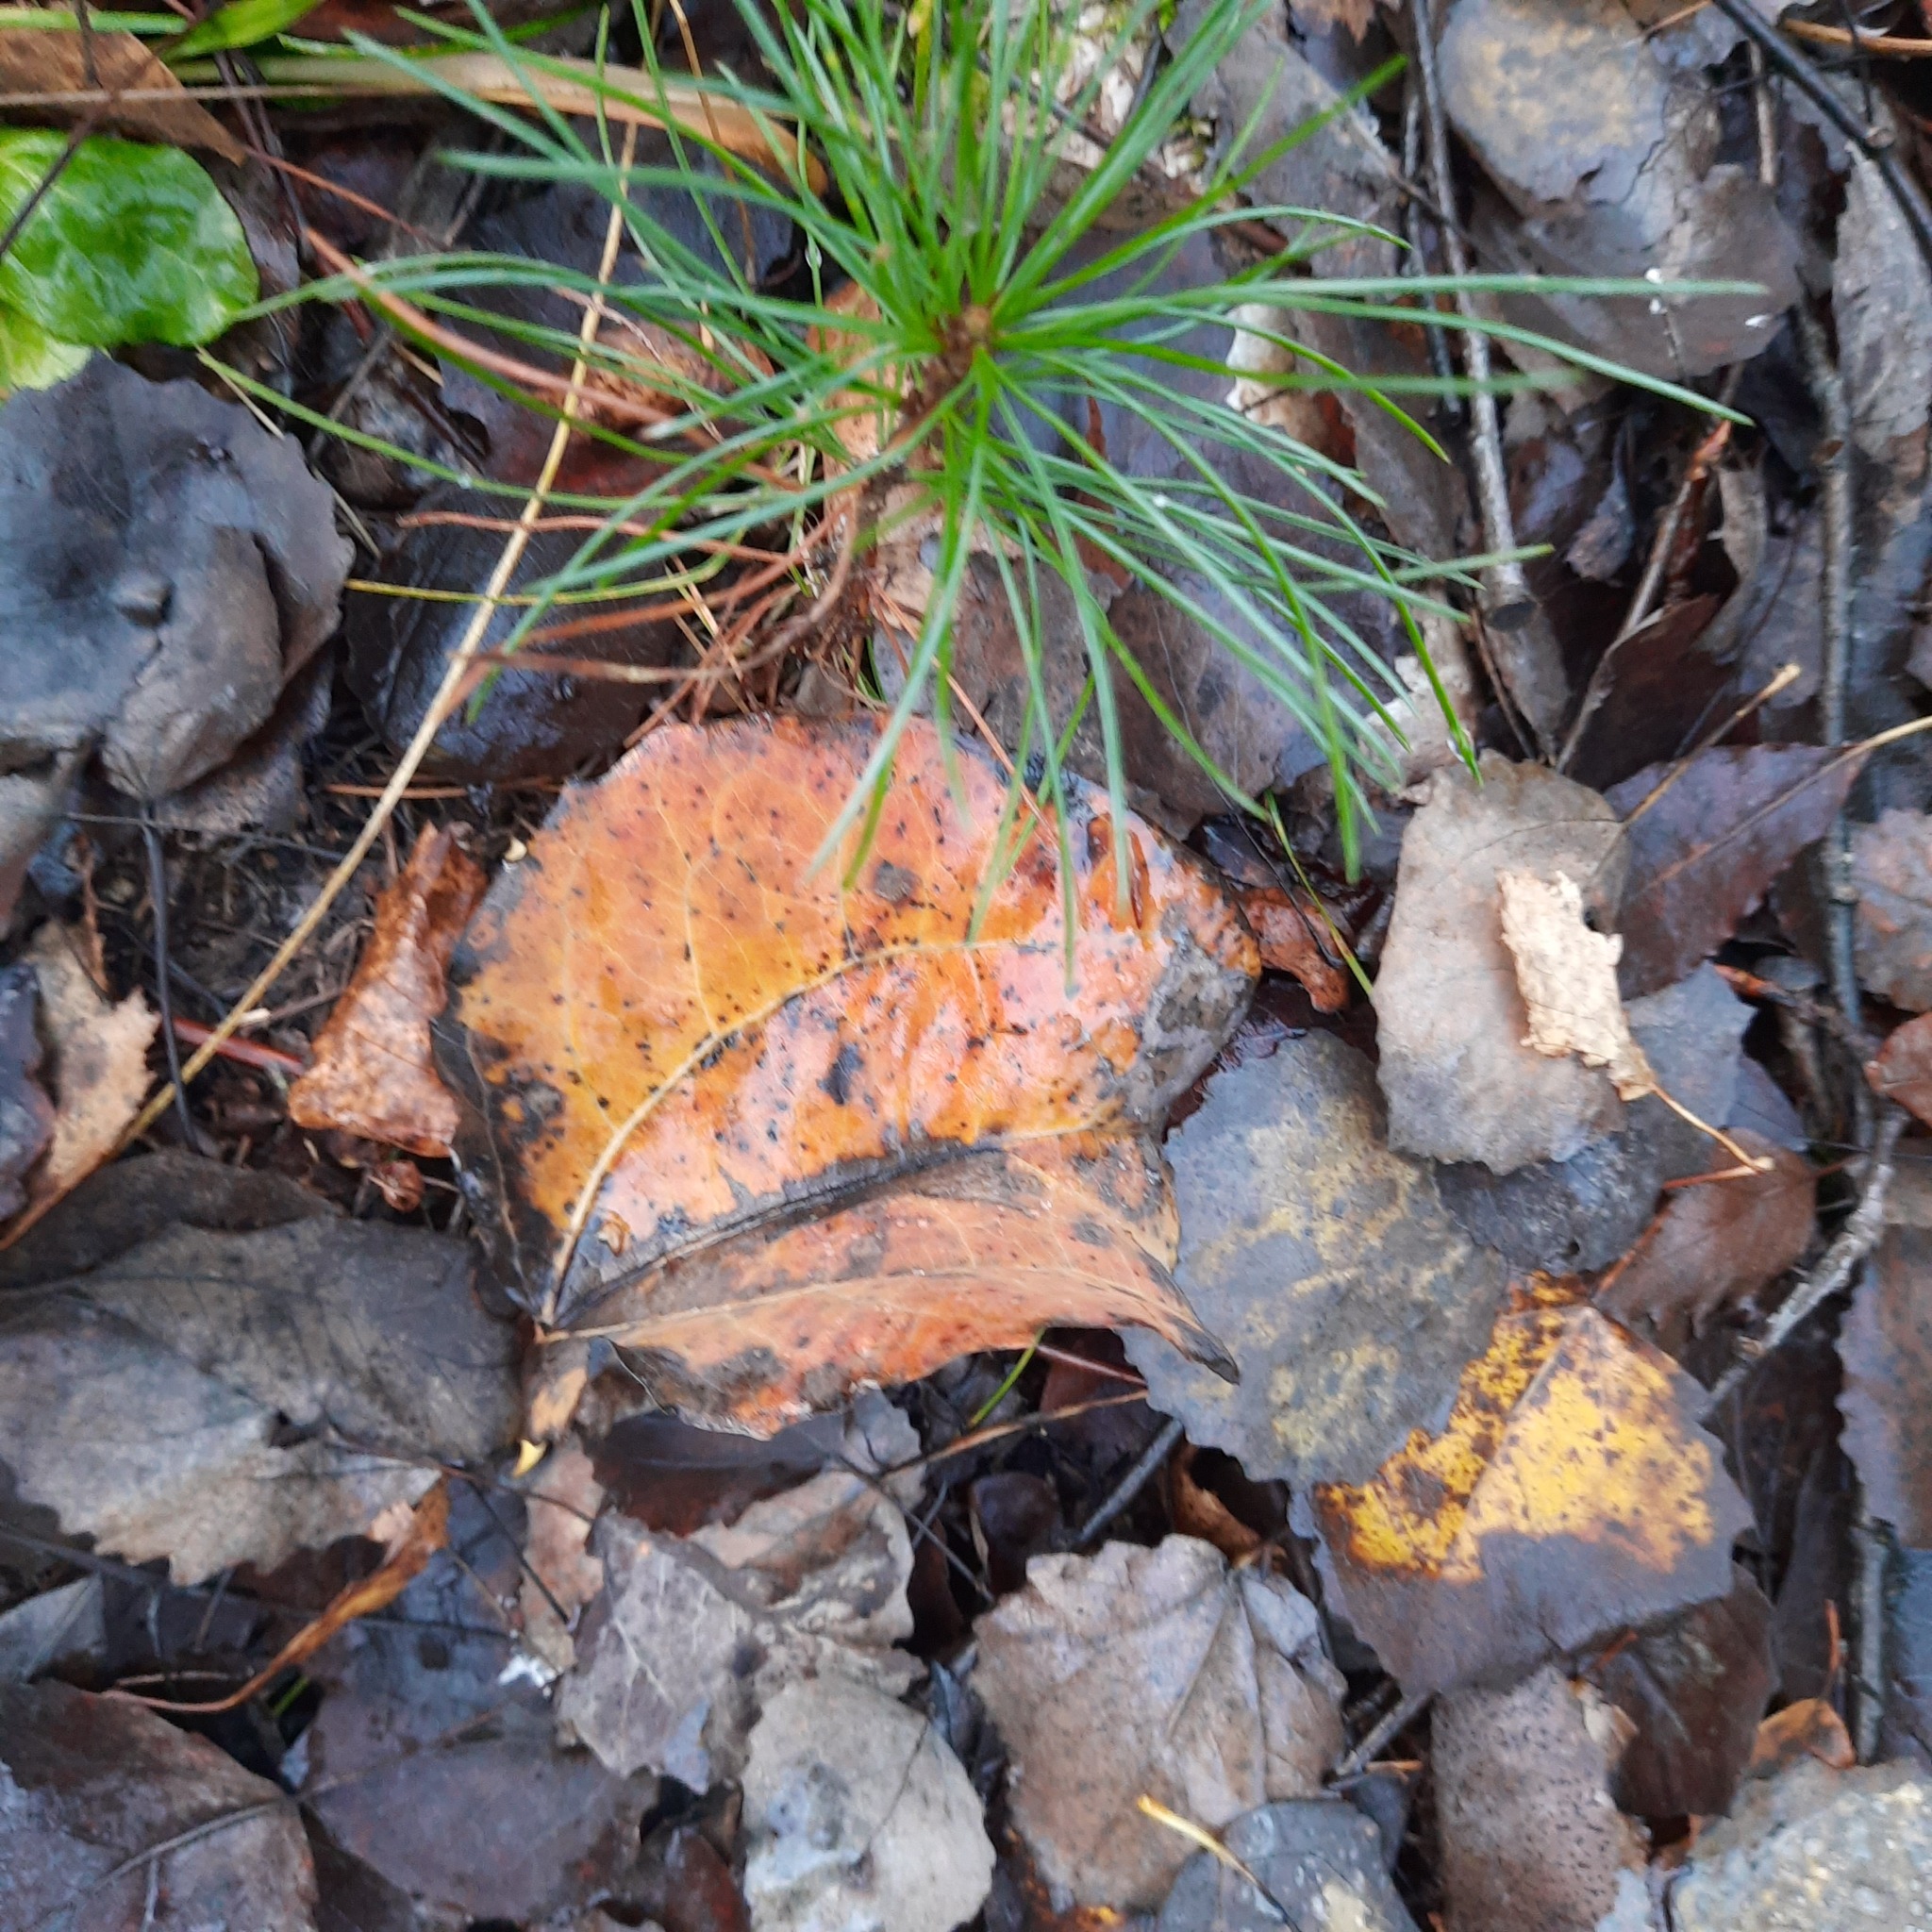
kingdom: Plantae
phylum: Tracheophyta
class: Pinopsida
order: Pinales
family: Pinaceae
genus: Pinus
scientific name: Pinus sibirica
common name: Siberian pine
